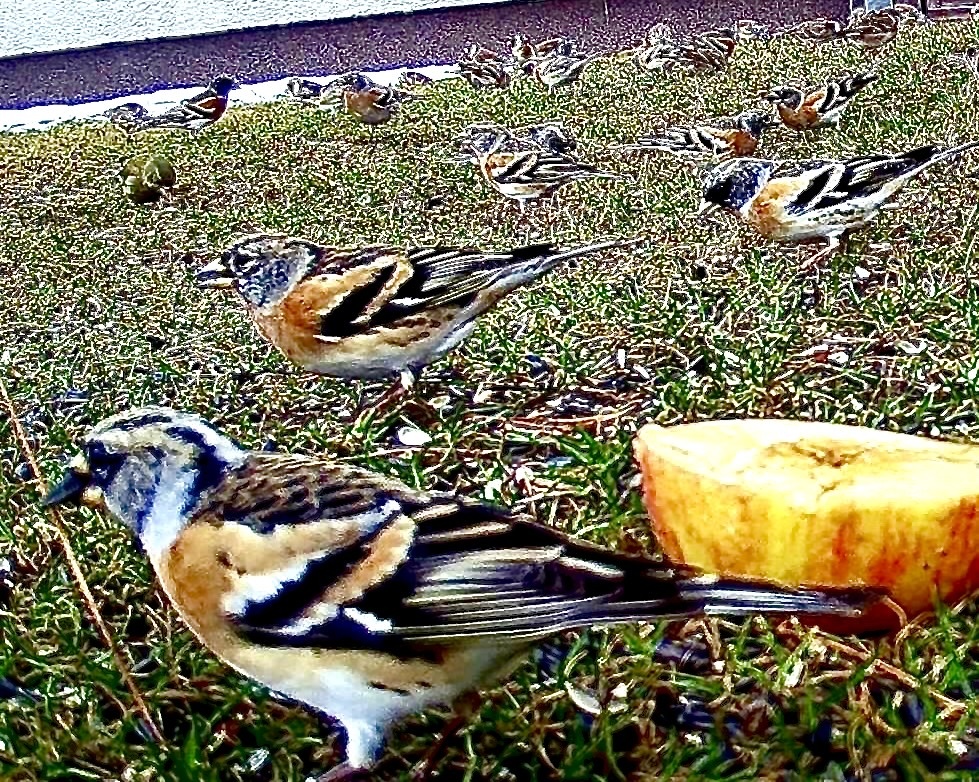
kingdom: Animalia
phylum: Chordata
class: Aves
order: Passeriformes
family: Fringillidae
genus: Fringilla
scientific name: Fringilla montifringilla
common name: Brambling
